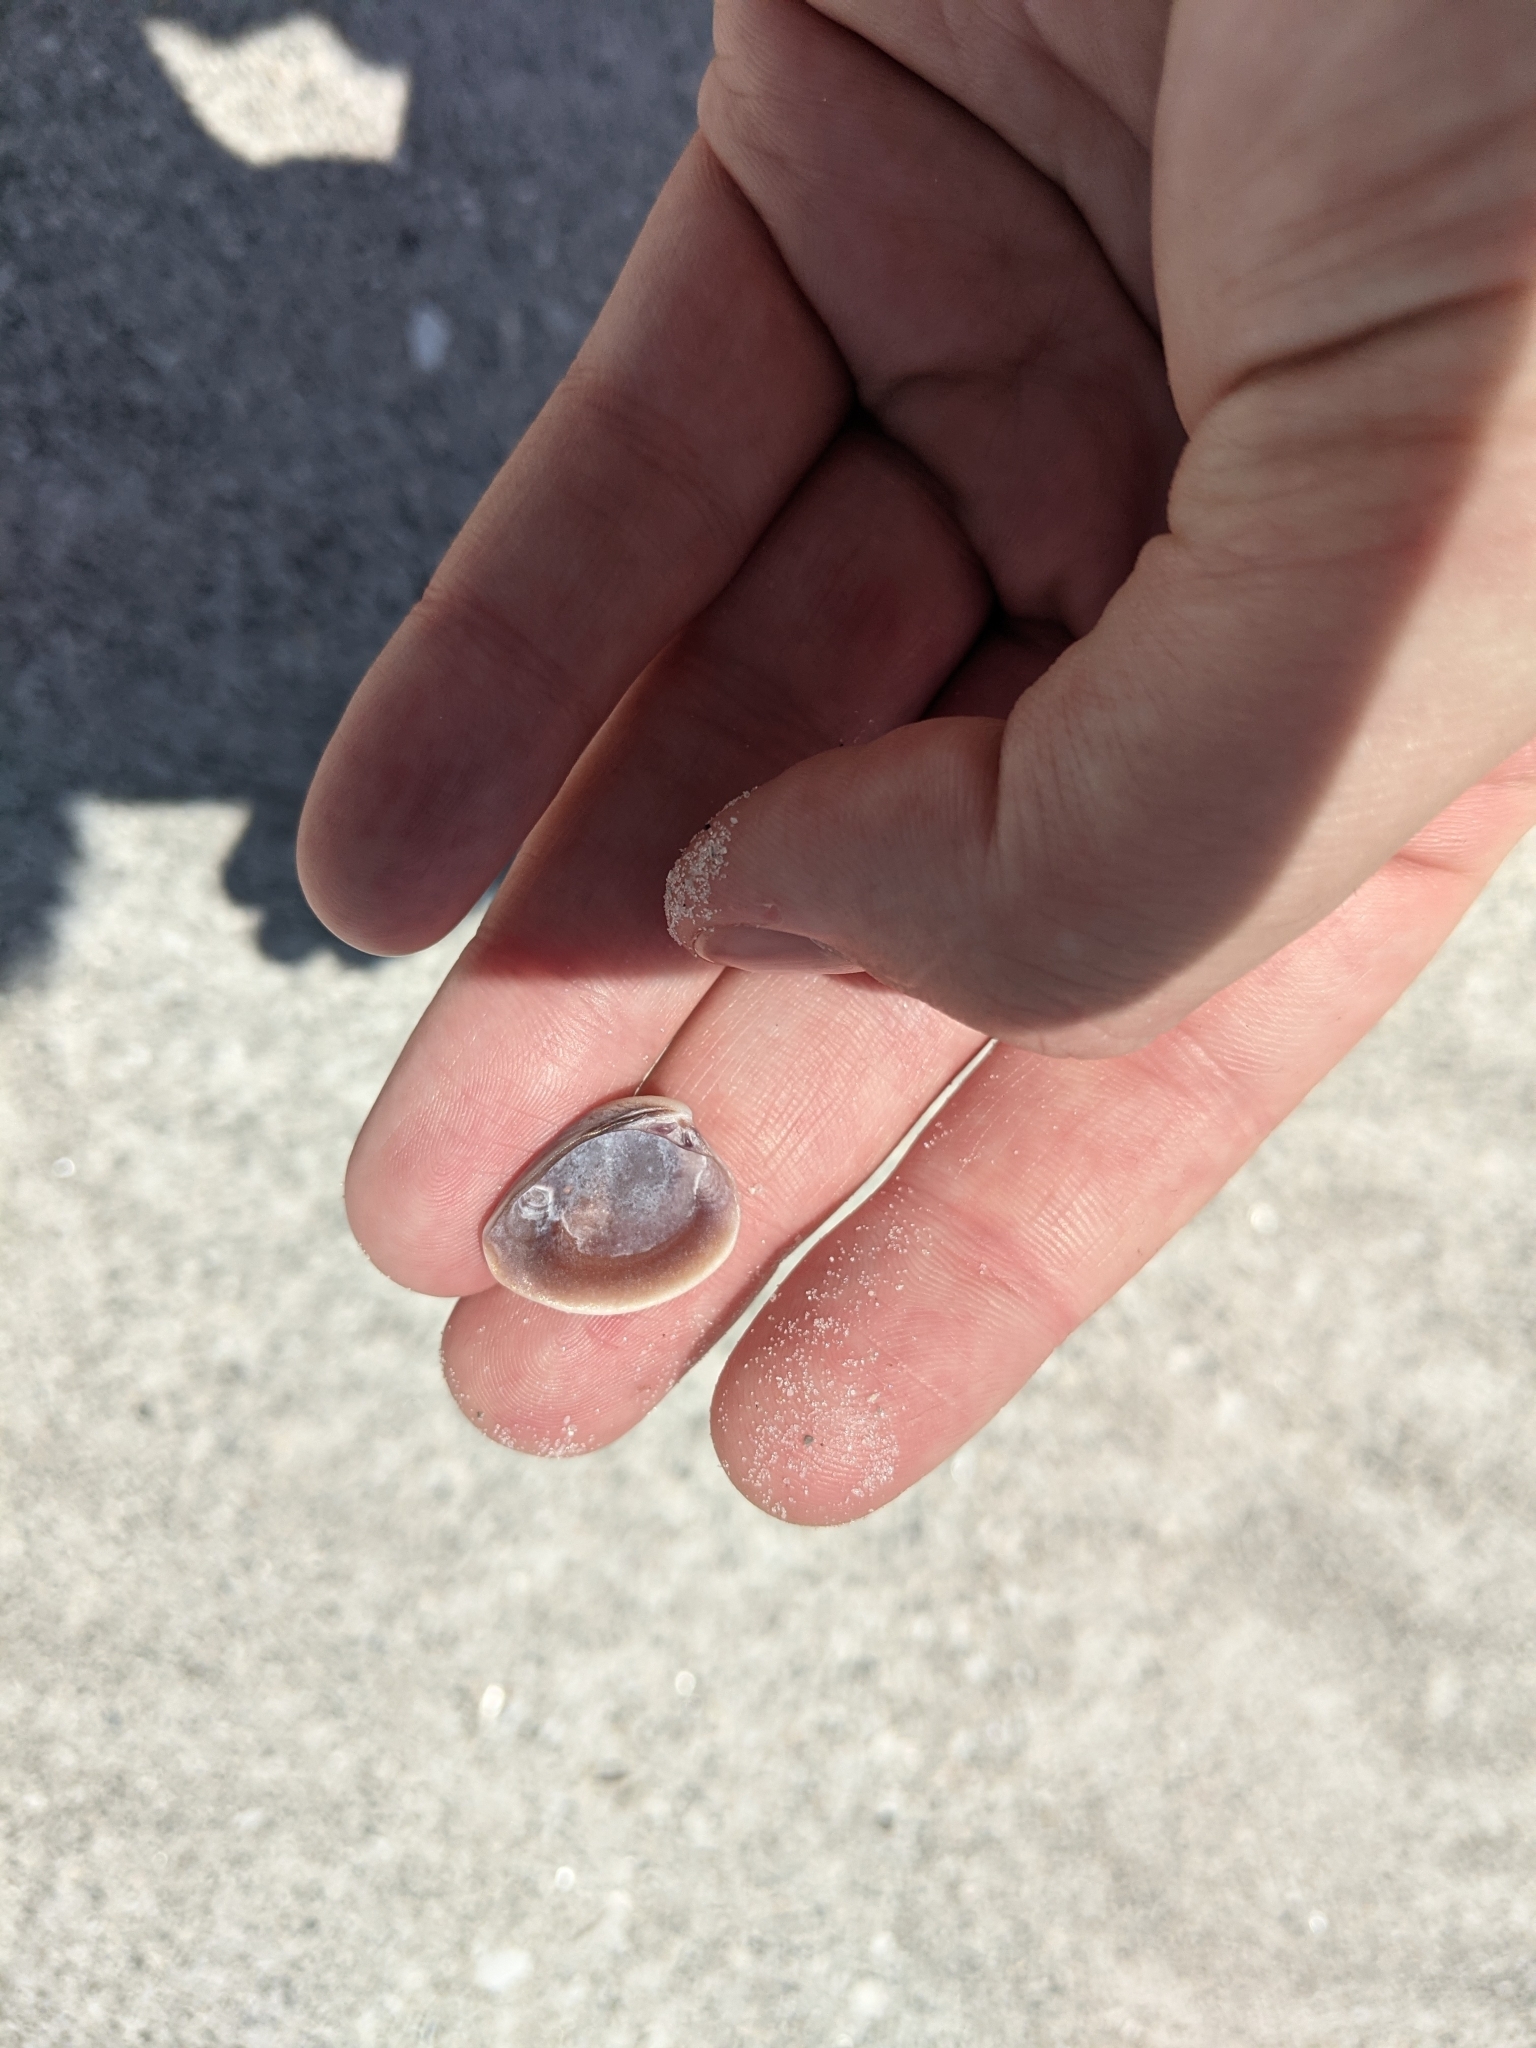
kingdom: Animalia
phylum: Mollusca
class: Bivalvia
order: Venerida
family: Veneridae
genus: Chione
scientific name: Chione elevata
